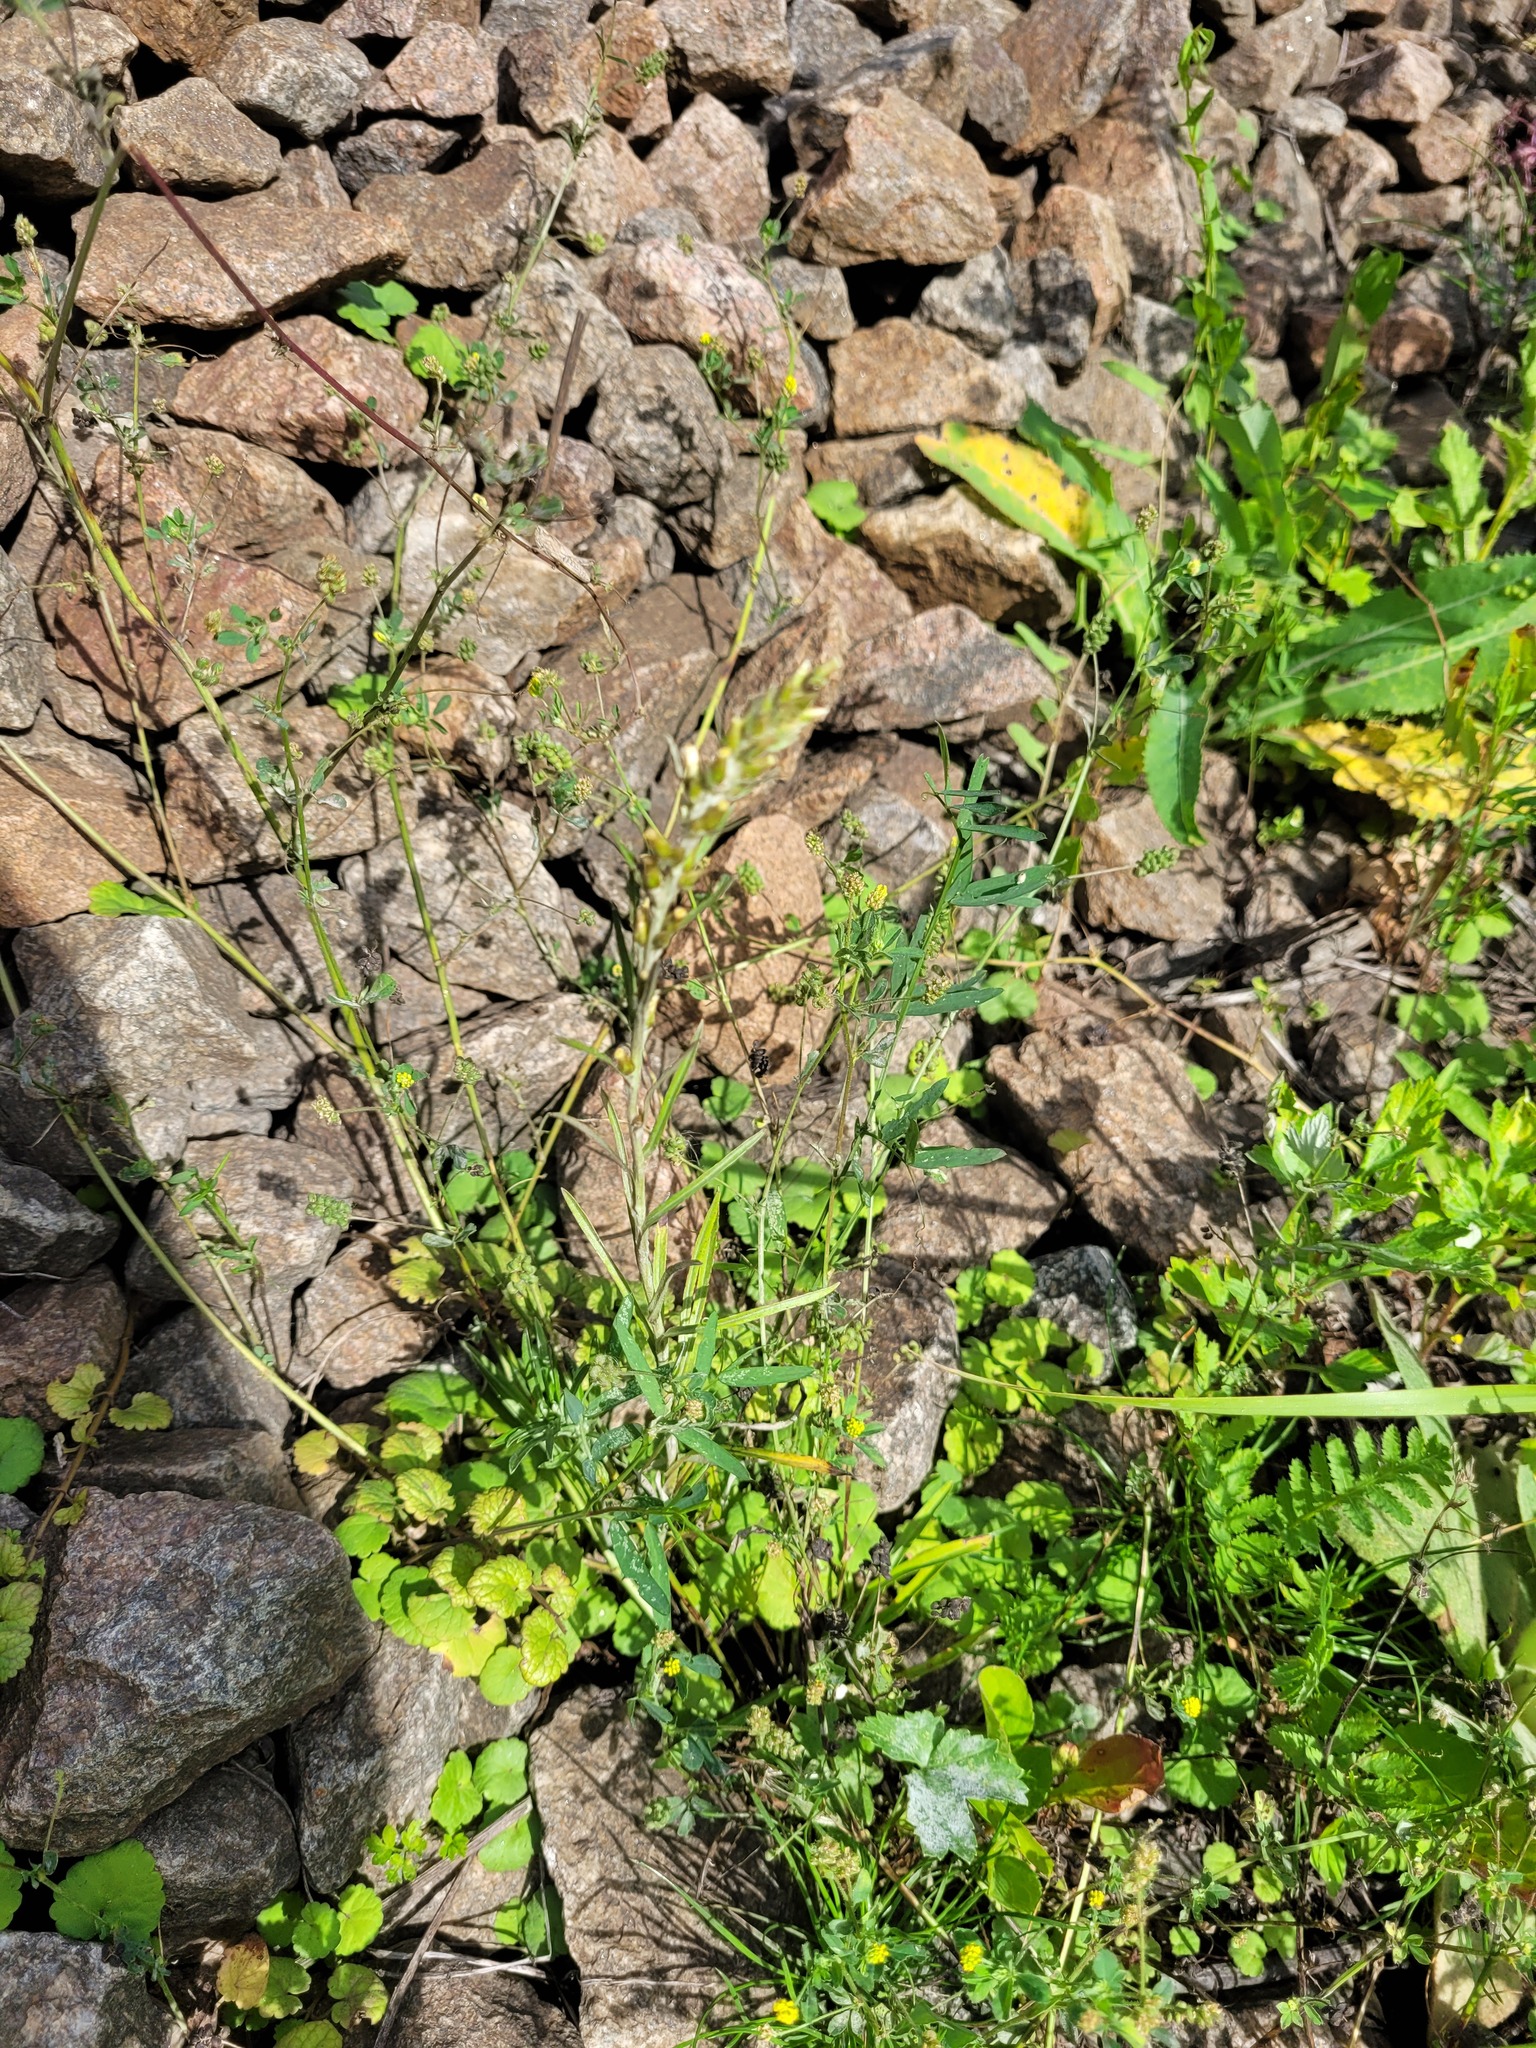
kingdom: Plantae
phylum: Tracheophyta
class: Magnoliopsida
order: Asterales
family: Asteraceae
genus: Omalotheca
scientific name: Omalotheca sylvatica
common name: Heath cudweed
